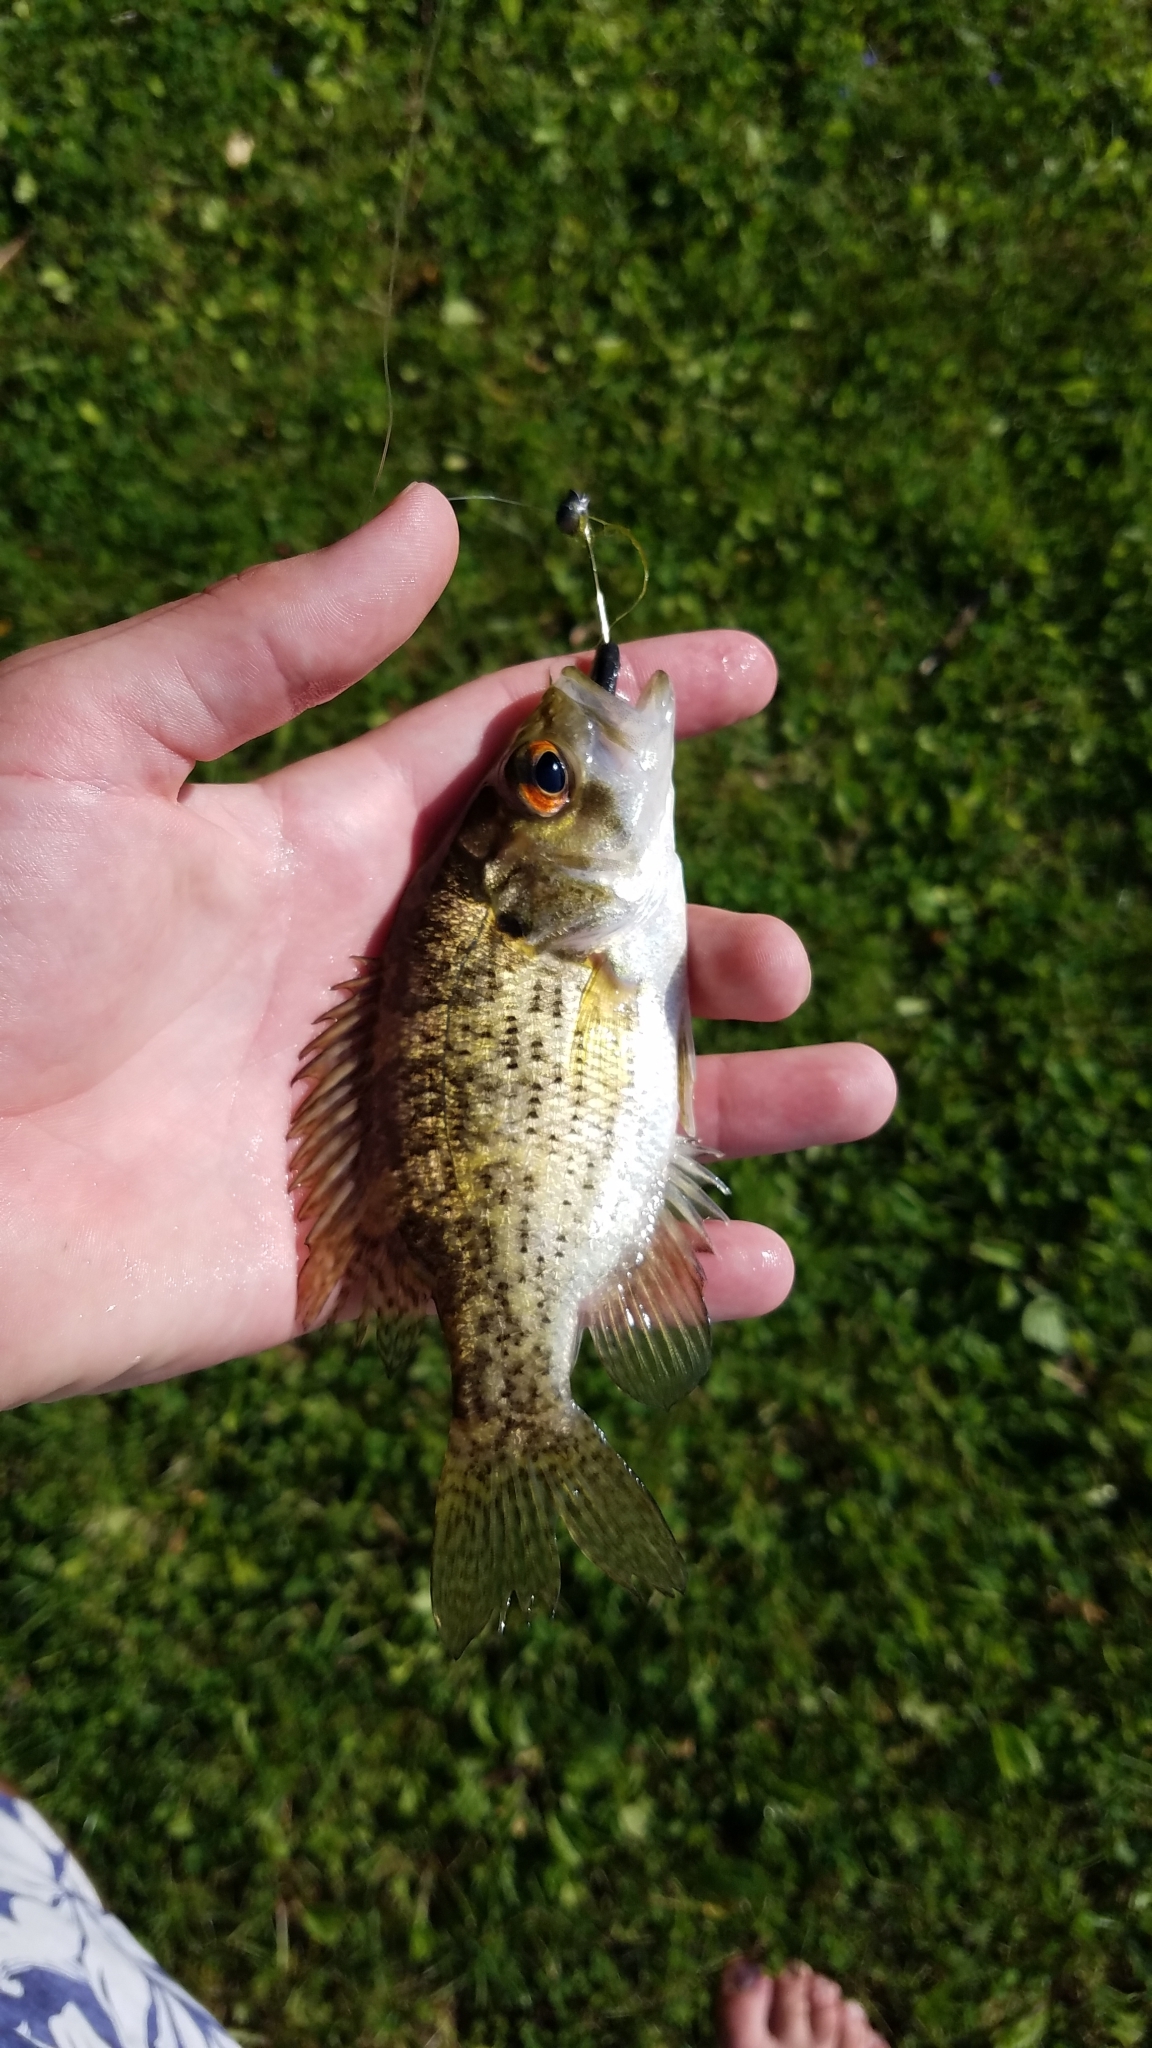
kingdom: Animalia
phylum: Chordata
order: Perciformes
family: Centrarchidae
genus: Ambloplites
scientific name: Ambloplites rupestris
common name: Rock bass
